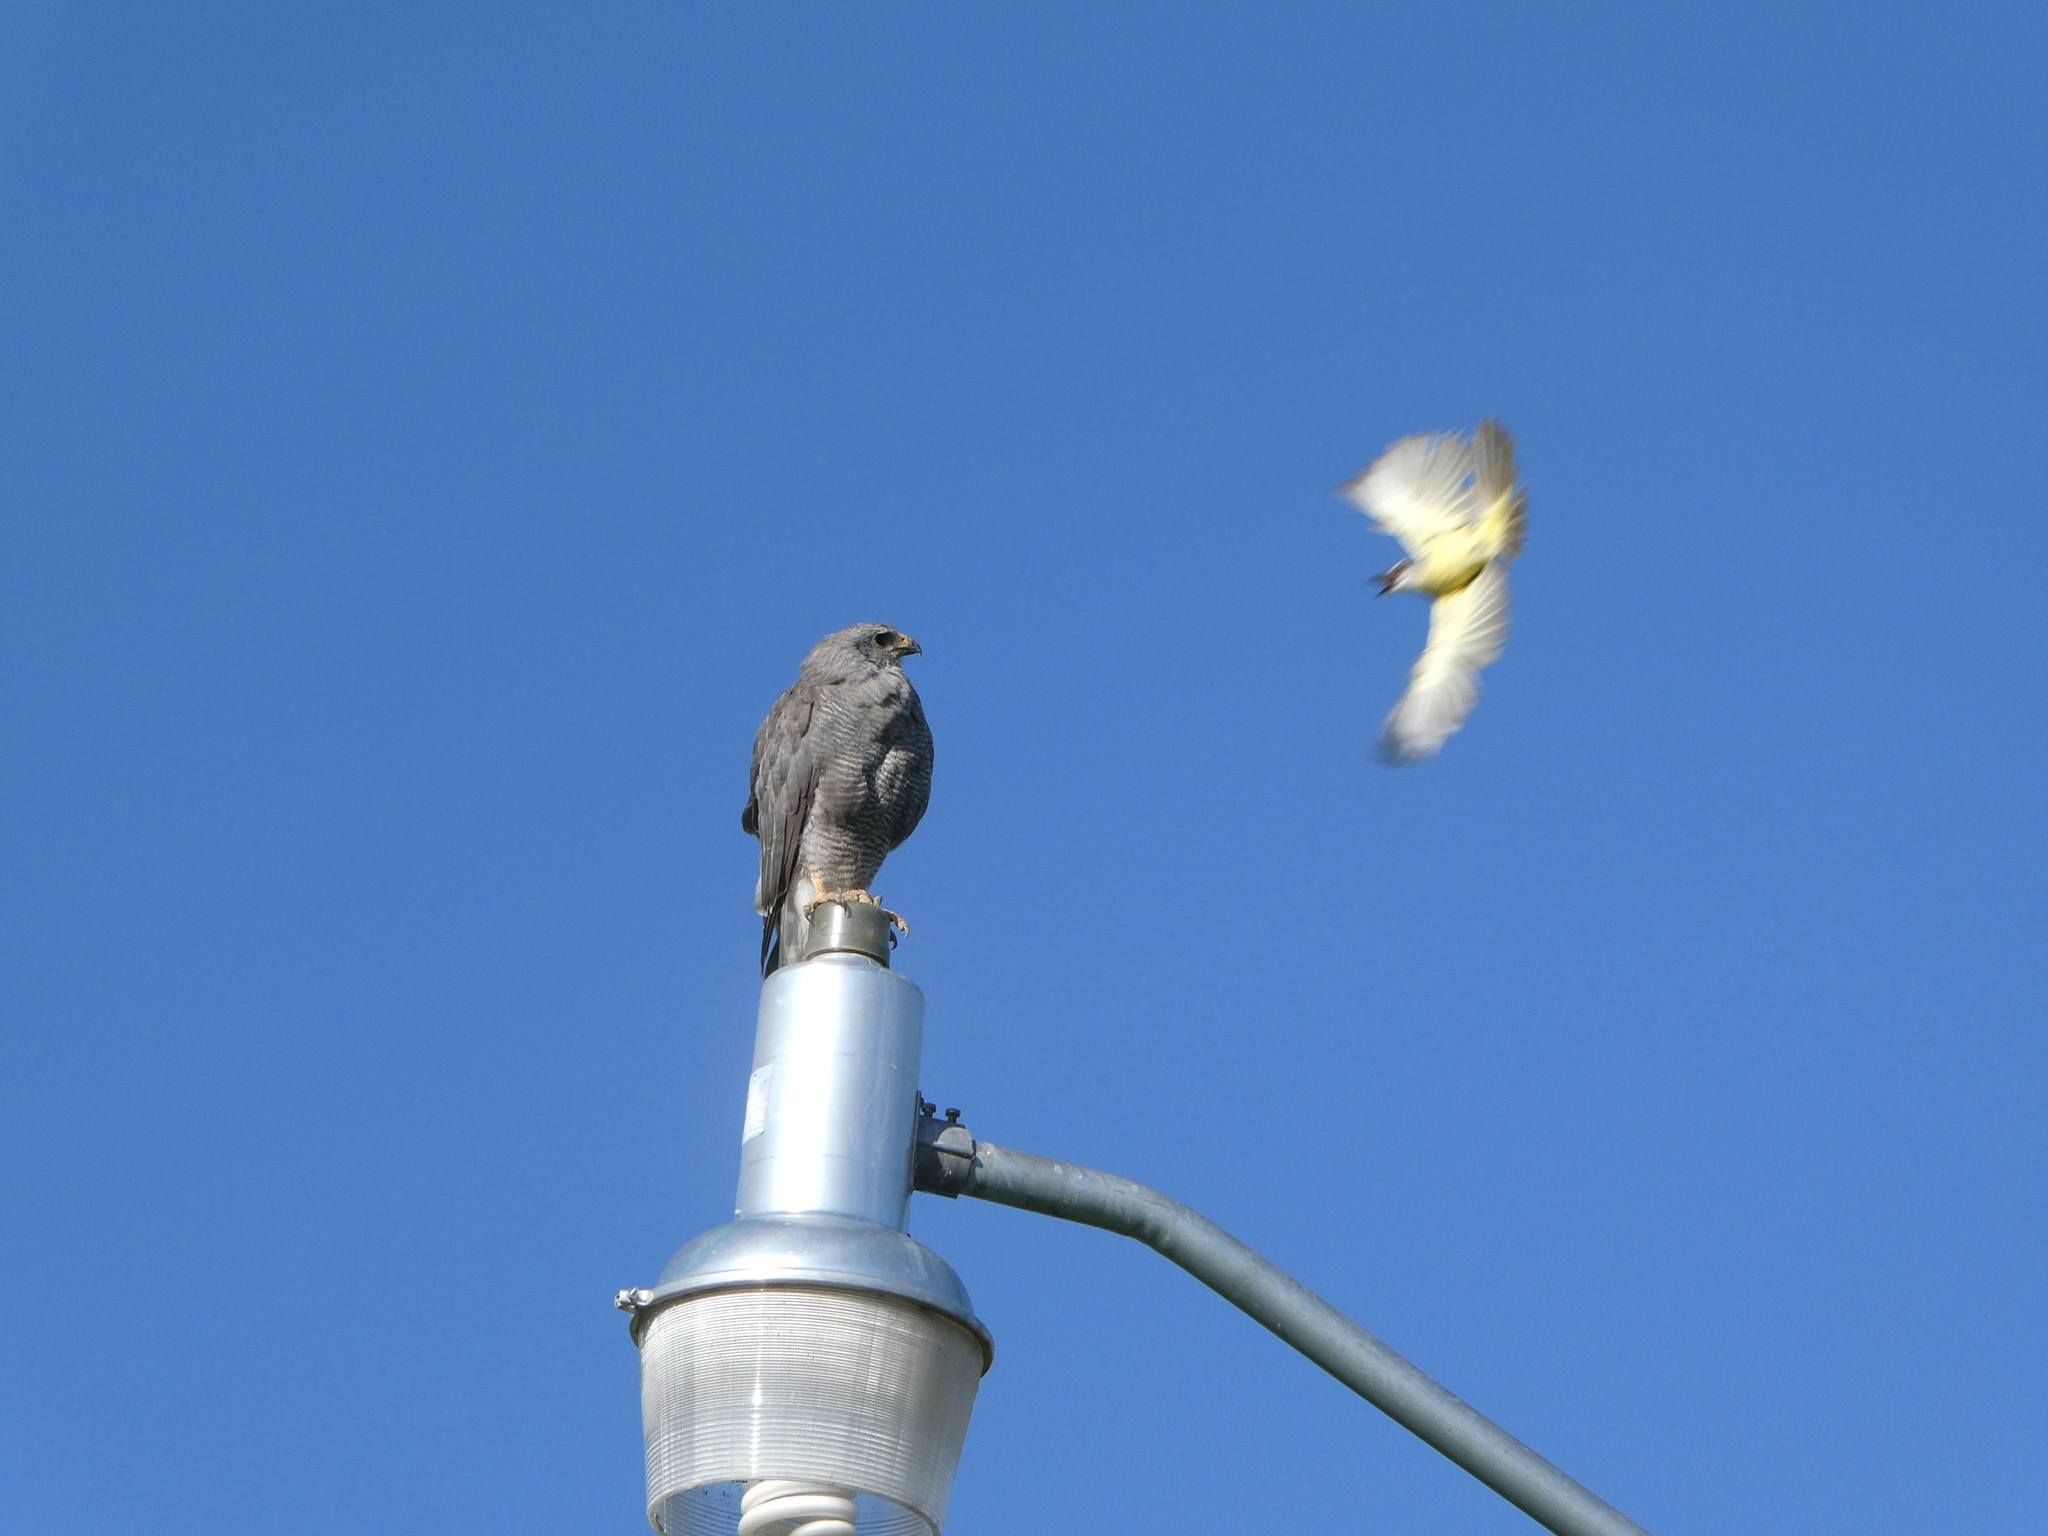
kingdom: Animalia
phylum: Chordata
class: Aves
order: Accipitriformes
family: Accipitridae
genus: Buteo
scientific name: Buteo nitidus
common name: Grey-lined hawk
